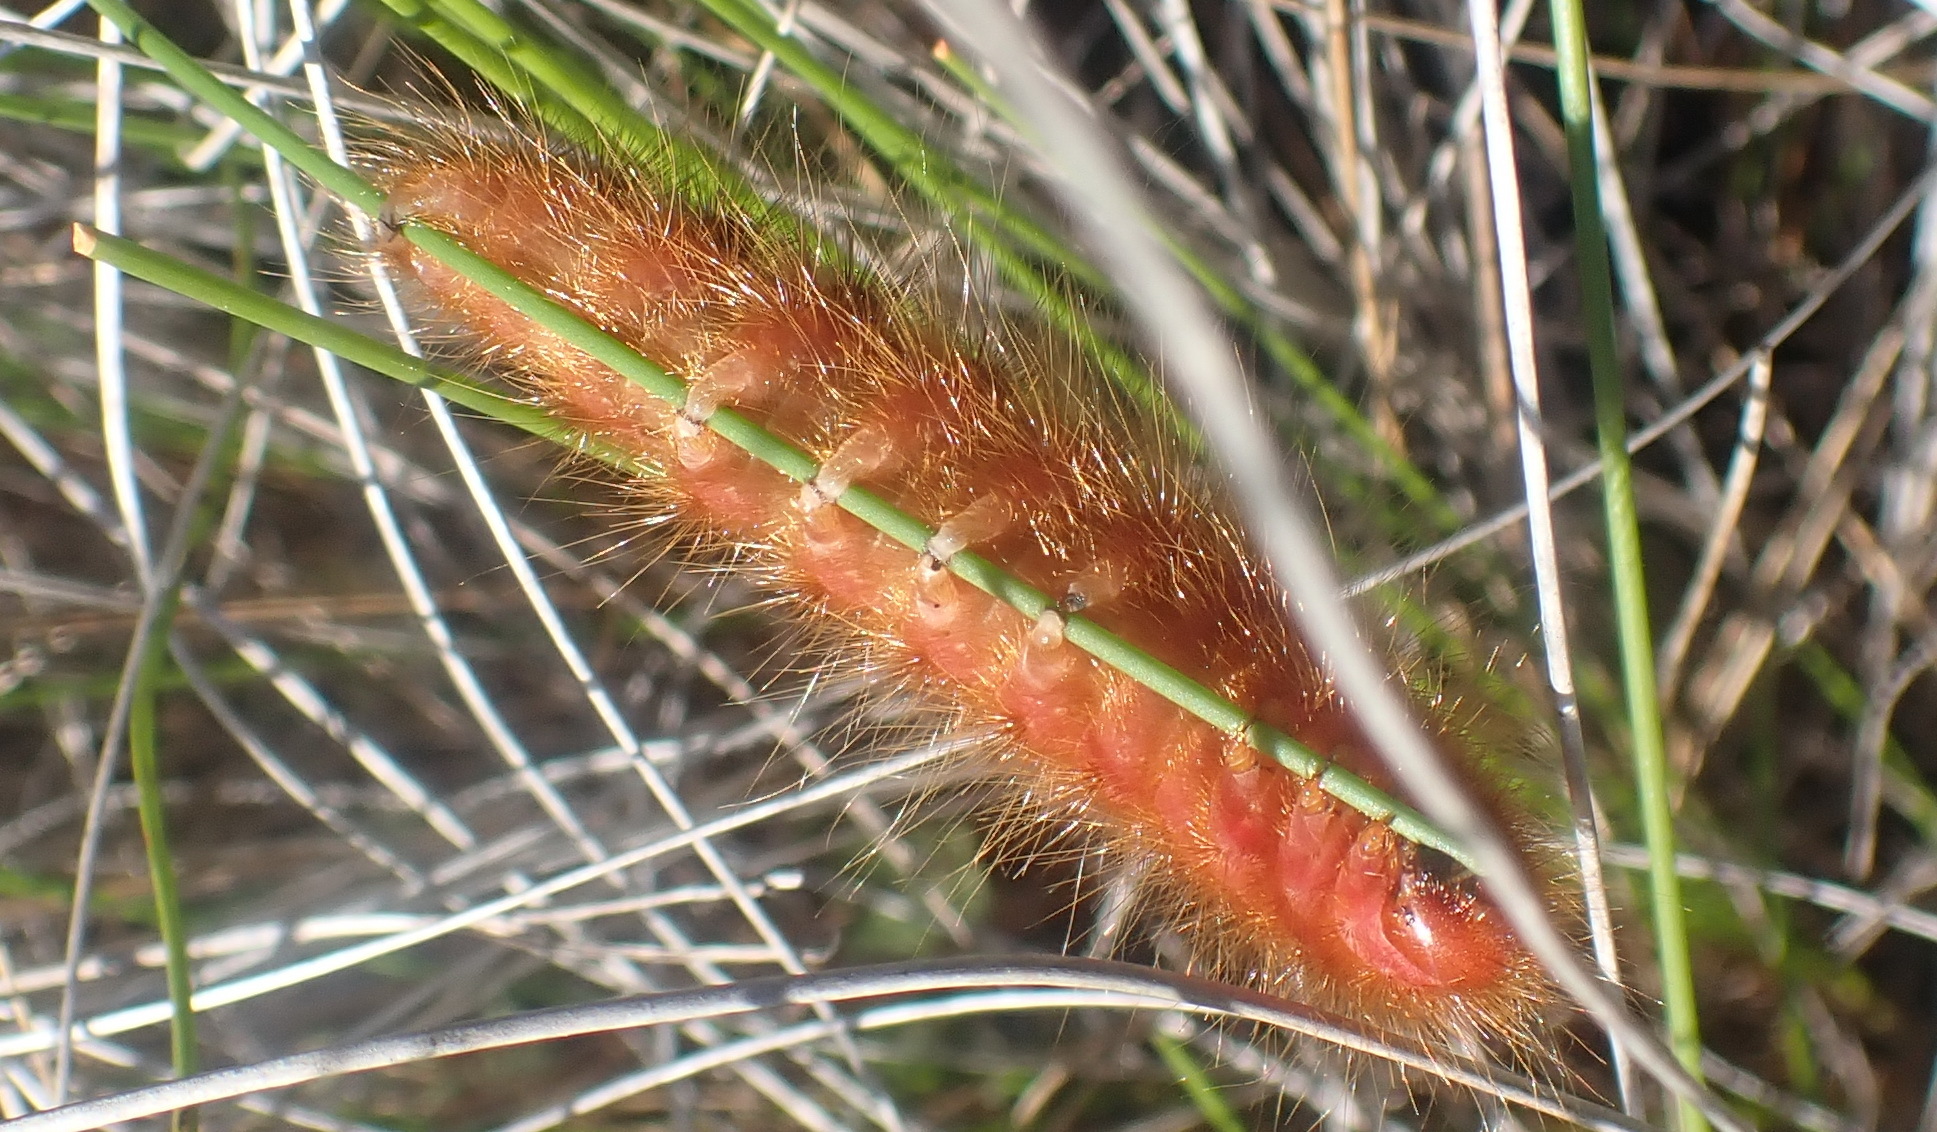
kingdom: Animalia
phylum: Arthropoda
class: Insecta
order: Lepidoptera
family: Eupterotidae
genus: Phyllalia
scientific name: Phyllalia patens
